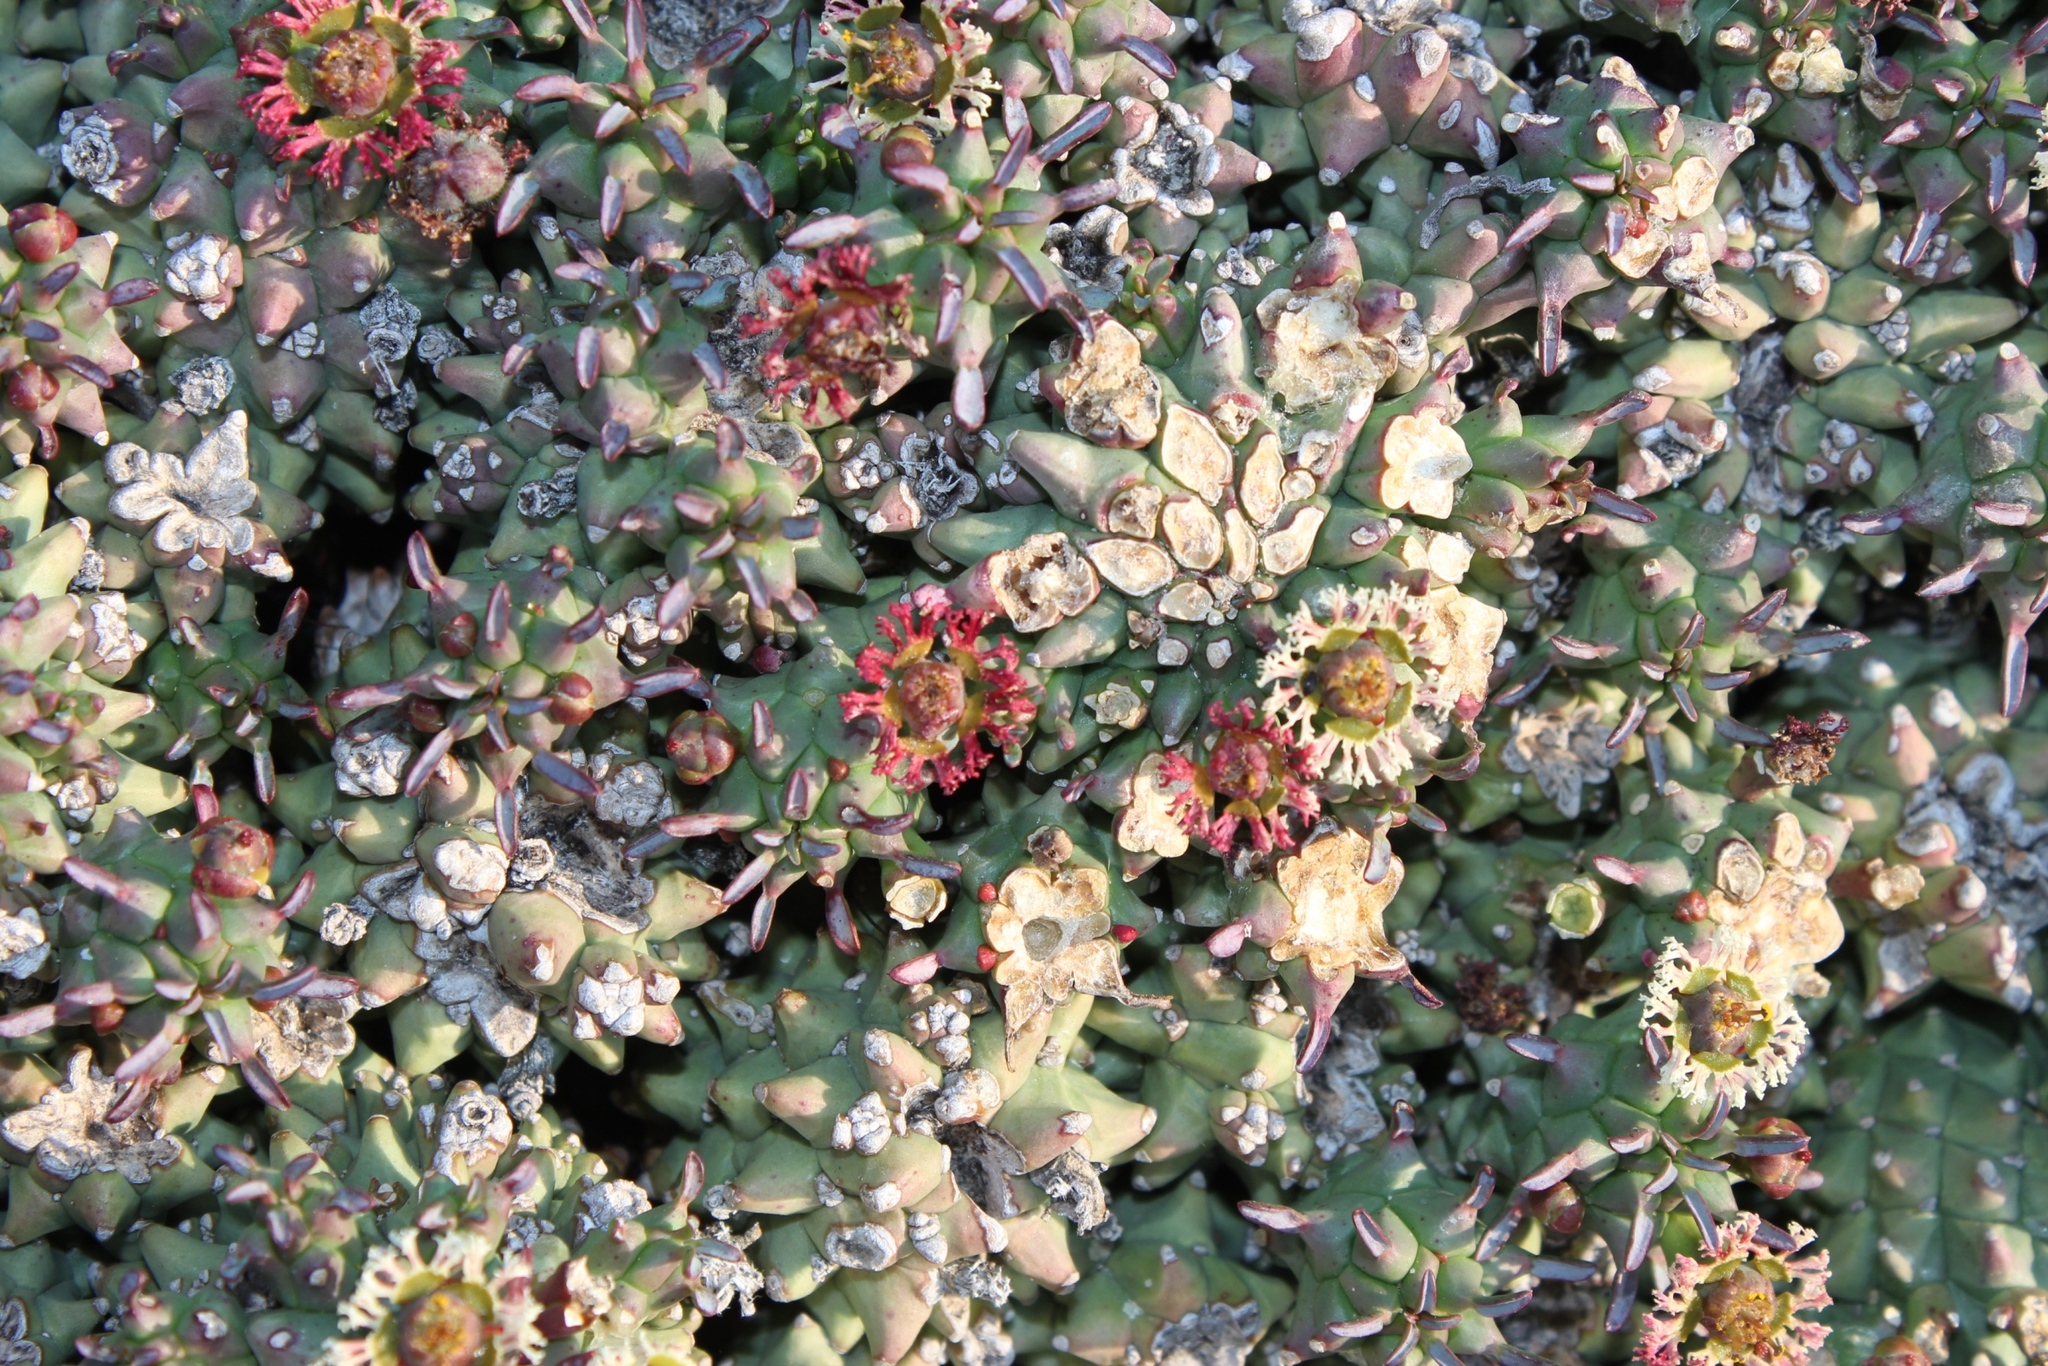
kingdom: Plantae
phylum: Tracheophyta
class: Magnoliopsida
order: Malpighiales
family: Euphorbiaceae
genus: Euphorbia
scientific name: Euphorbia caput-medusae
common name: Medusa's-head
